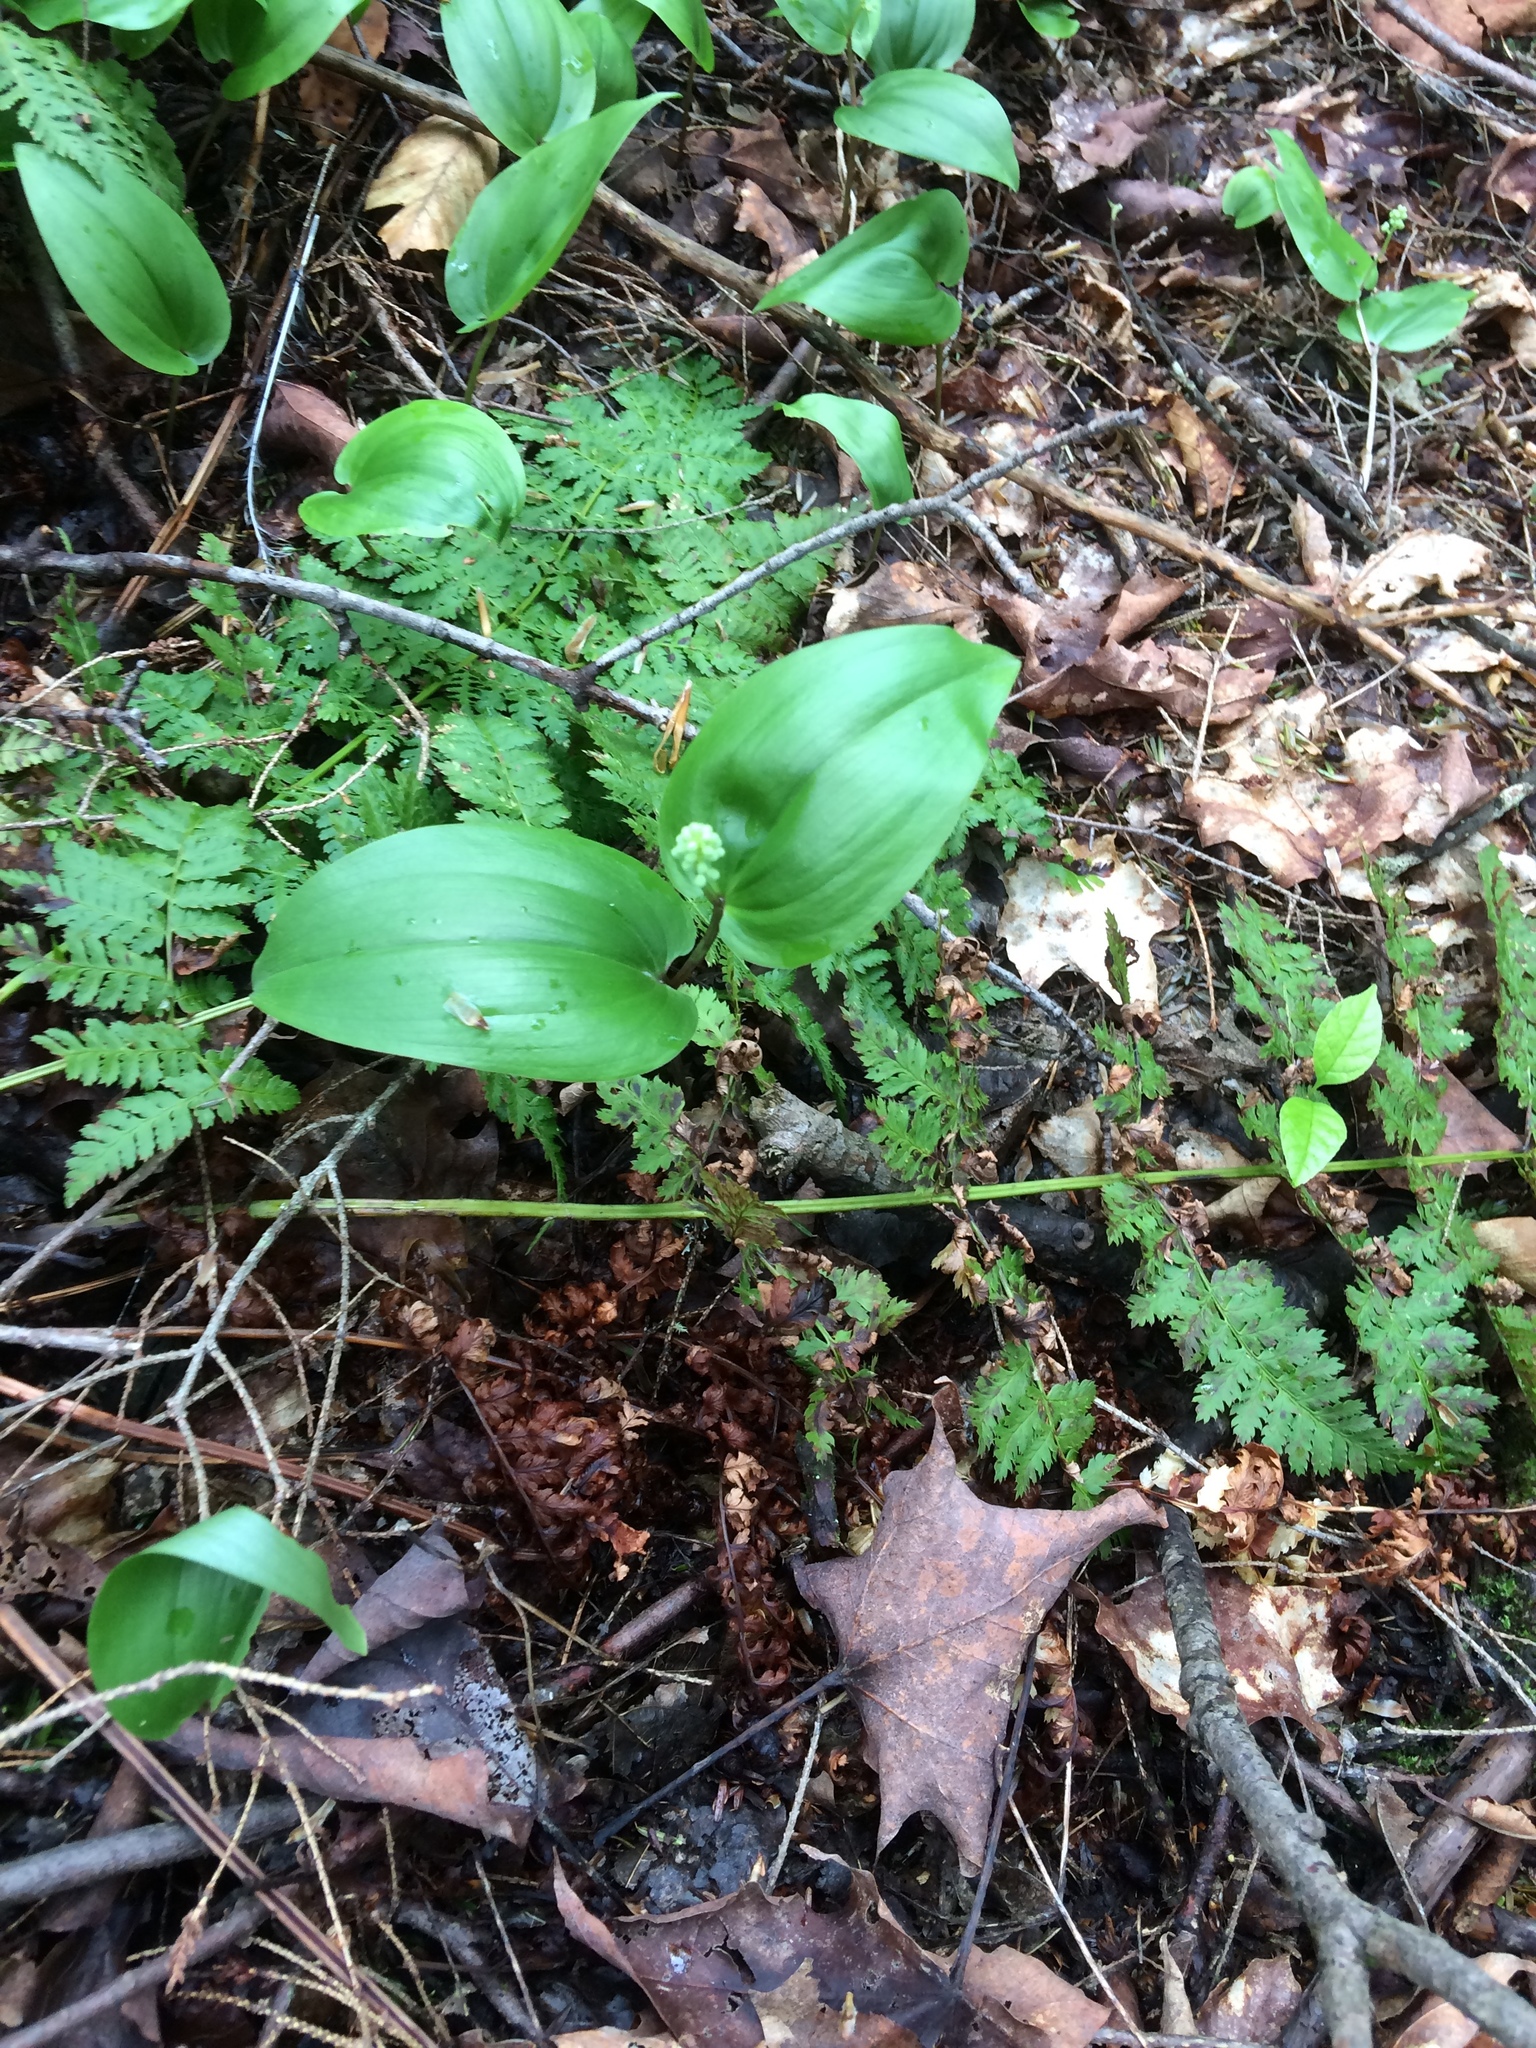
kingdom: Plantae
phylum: Tracheophyta
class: Liliopsida
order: Asparagales
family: Asparagaceae
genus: Maianthemum
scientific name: Maianthemum canadense
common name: False lily-of-the-valley
